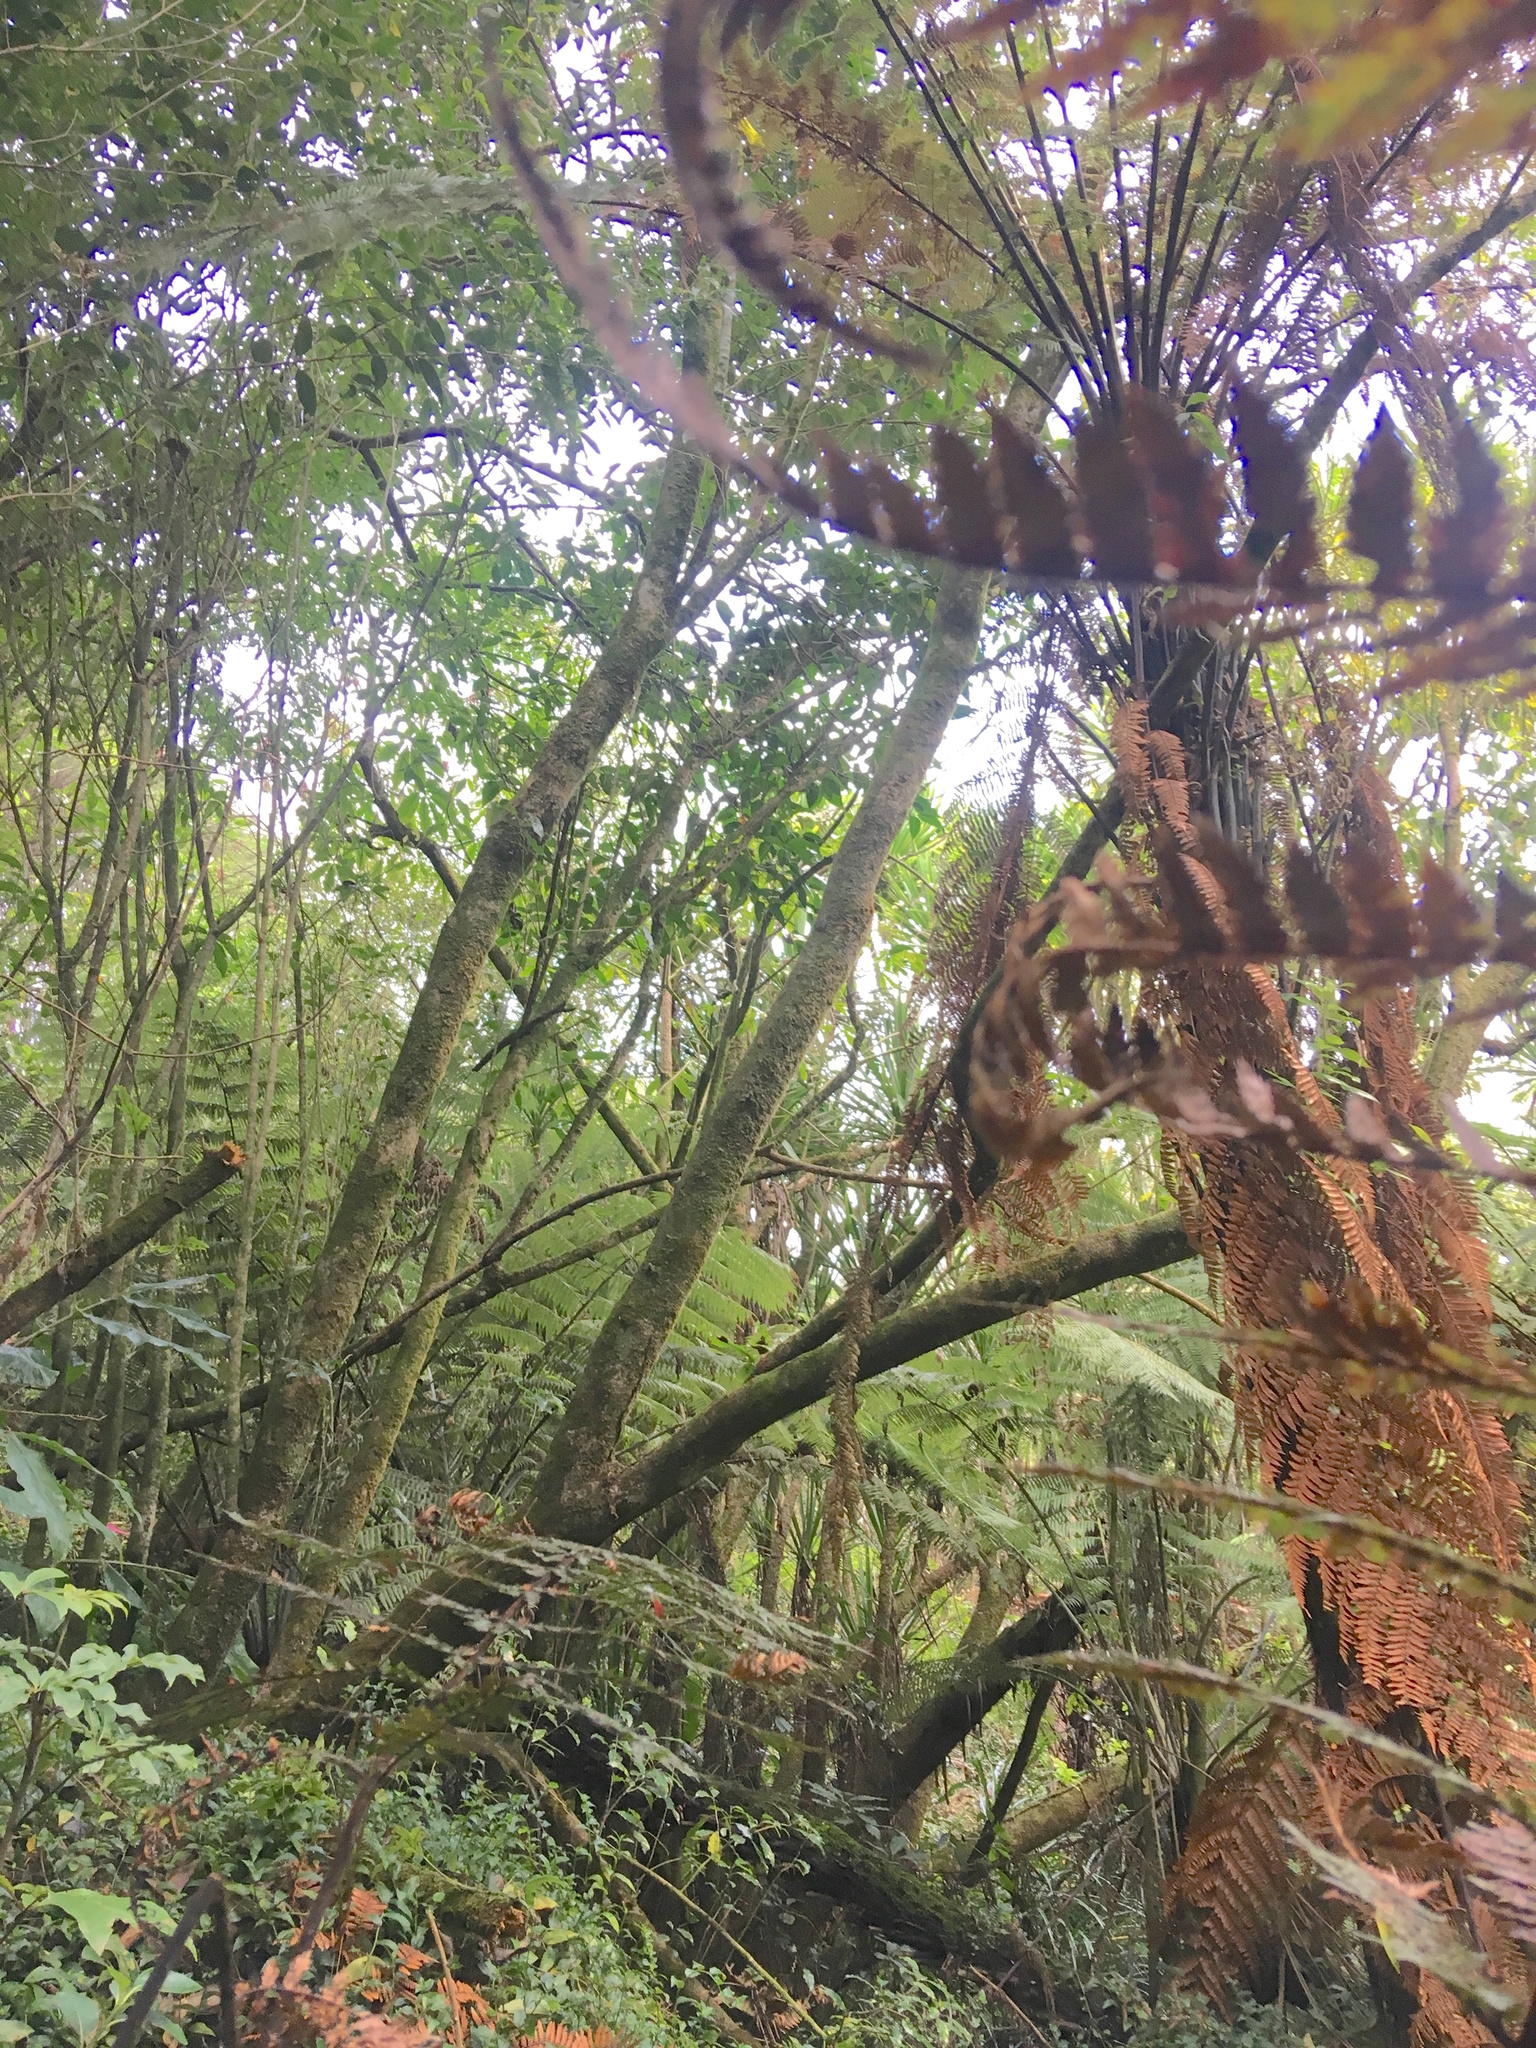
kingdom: Plantae
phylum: Tracheophyta
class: Magnoliopsida
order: Malpighiales
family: Violaceae
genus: Melicytus
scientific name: Melicytus ramiflorus
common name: Mahoe
